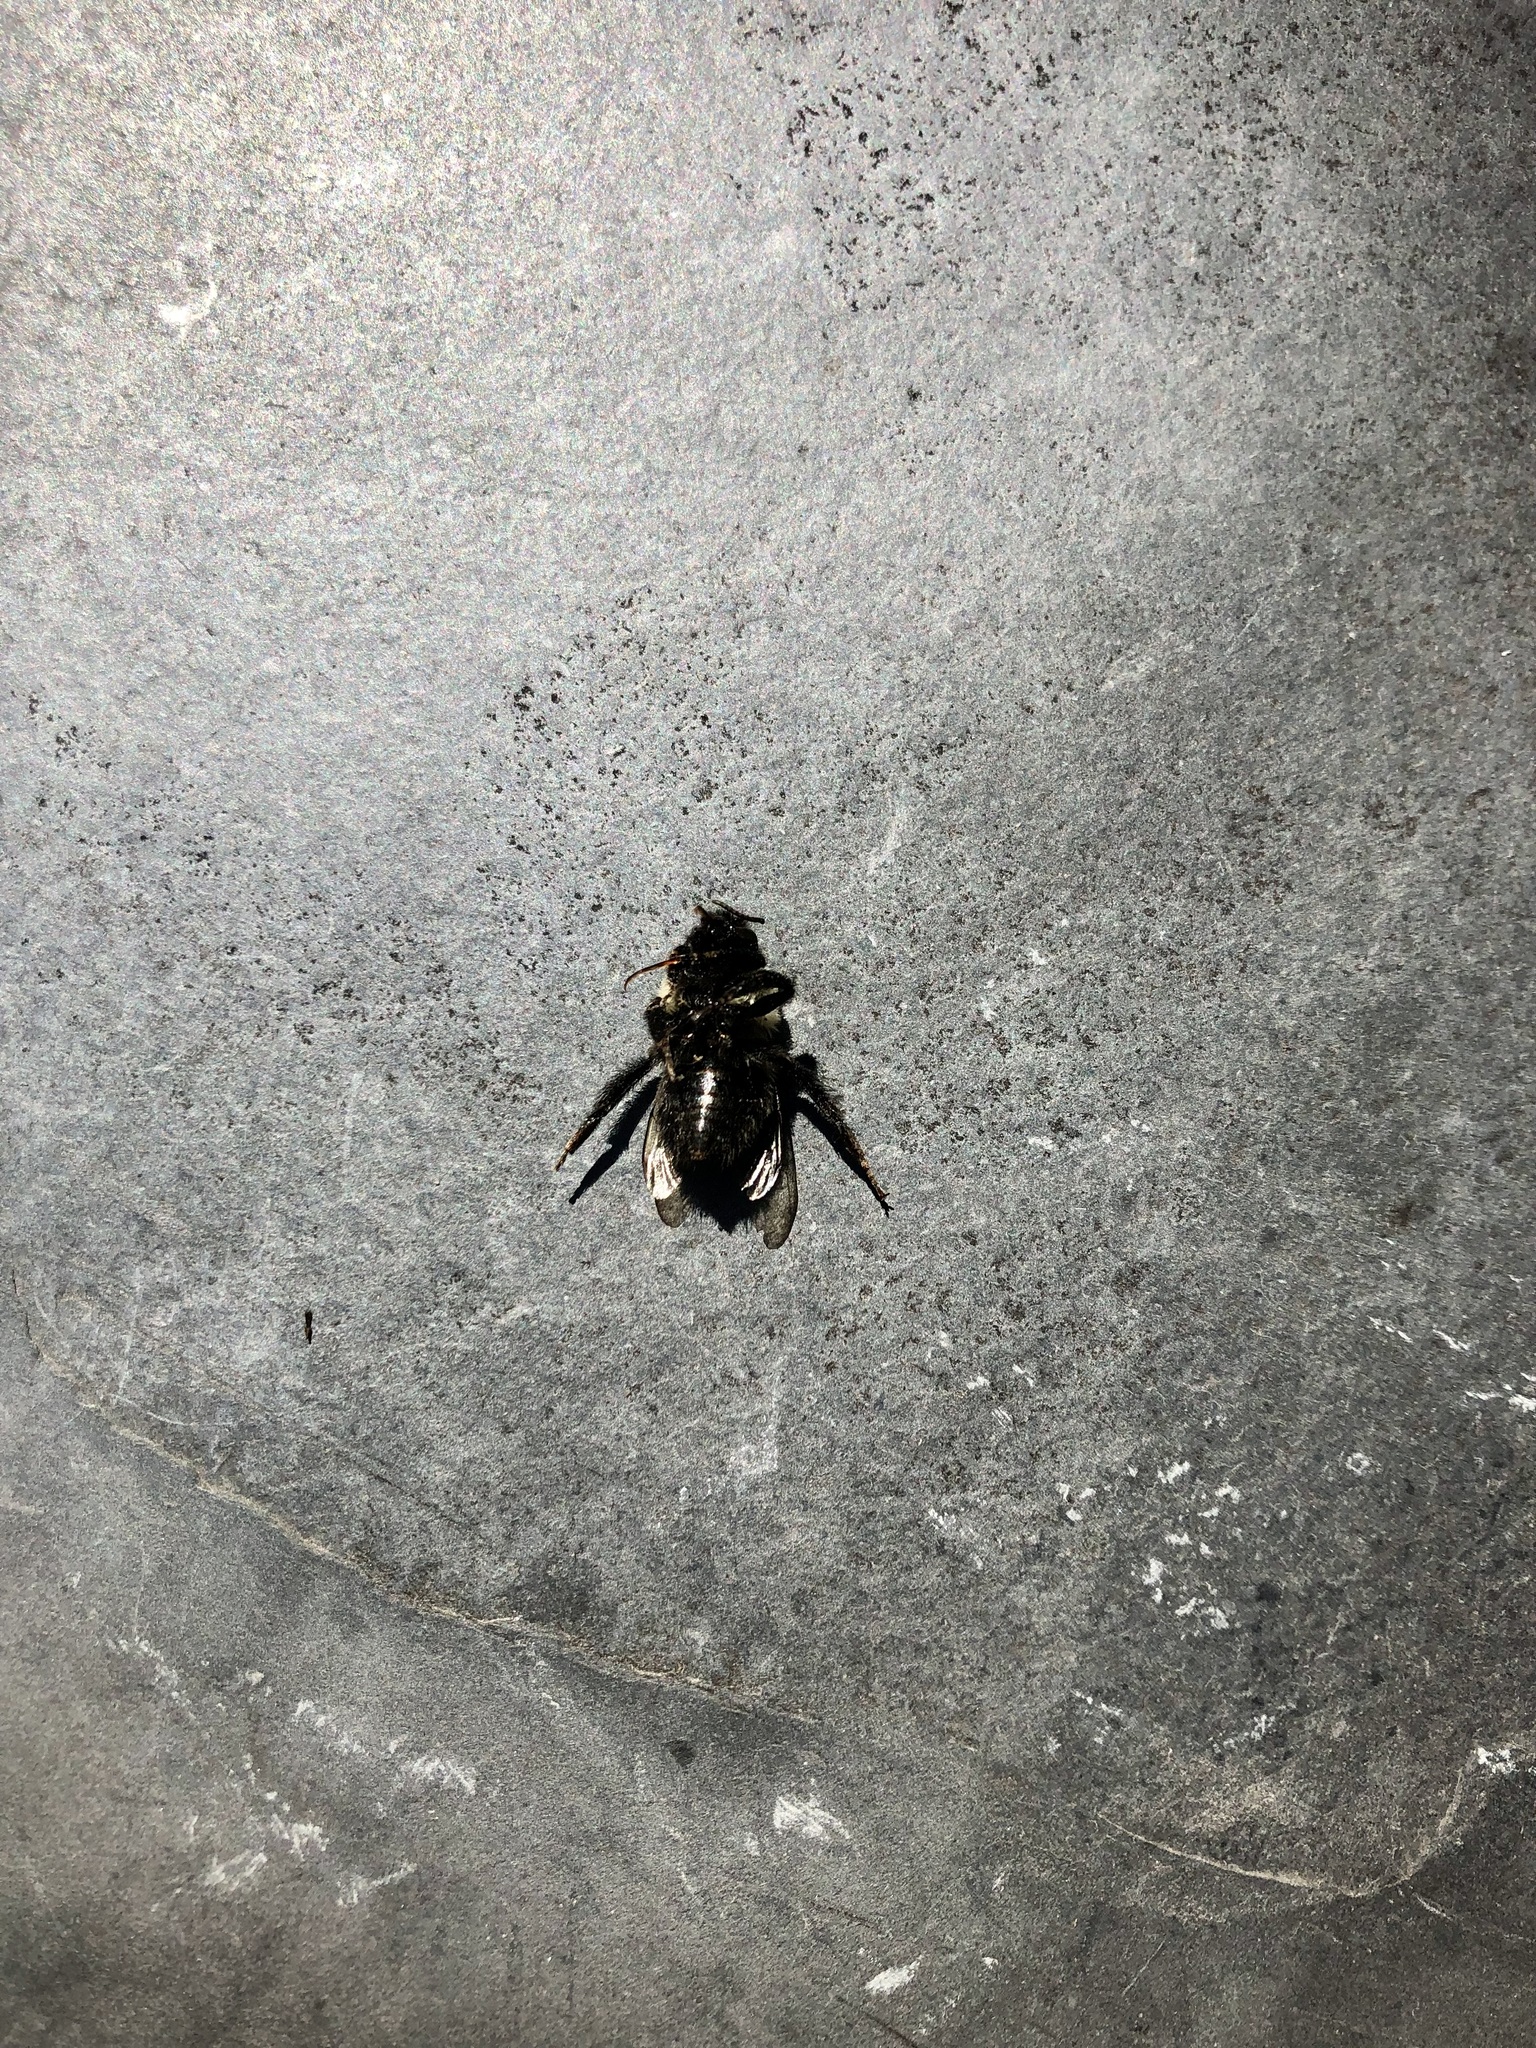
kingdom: Animalia
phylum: Arthropoda
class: Insecta
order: Hymenoptera
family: Apidae
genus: Bombus
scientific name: Bombus impatiens
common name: Common eastern bumble bee
